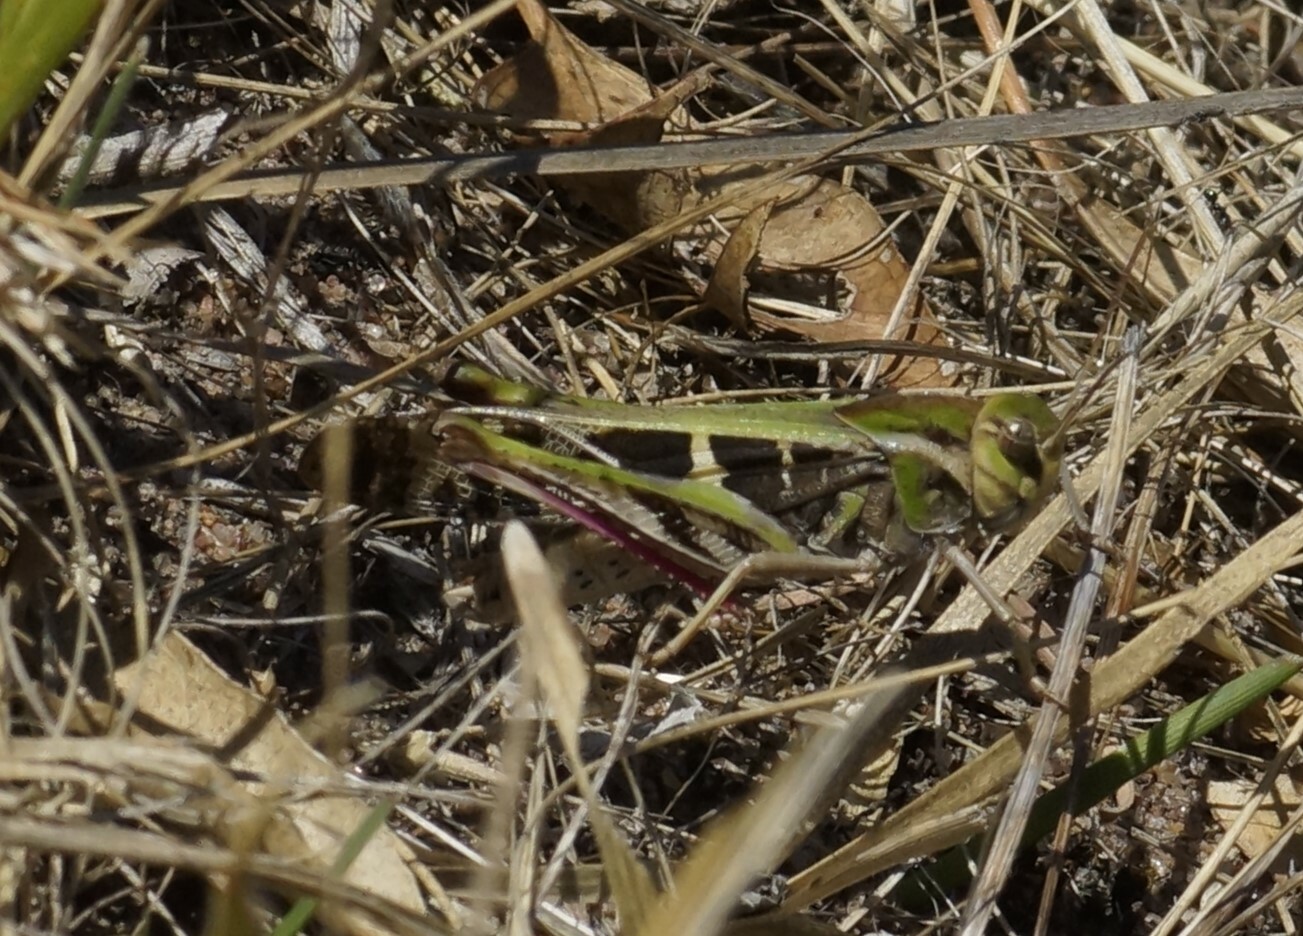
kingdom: Animalia
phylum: Arthropoda
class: Insecta
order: Orthoptera
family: Acrididae
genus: Gastrimargus
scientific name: Gastrimargus musicus
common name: Yellow-winged locust
